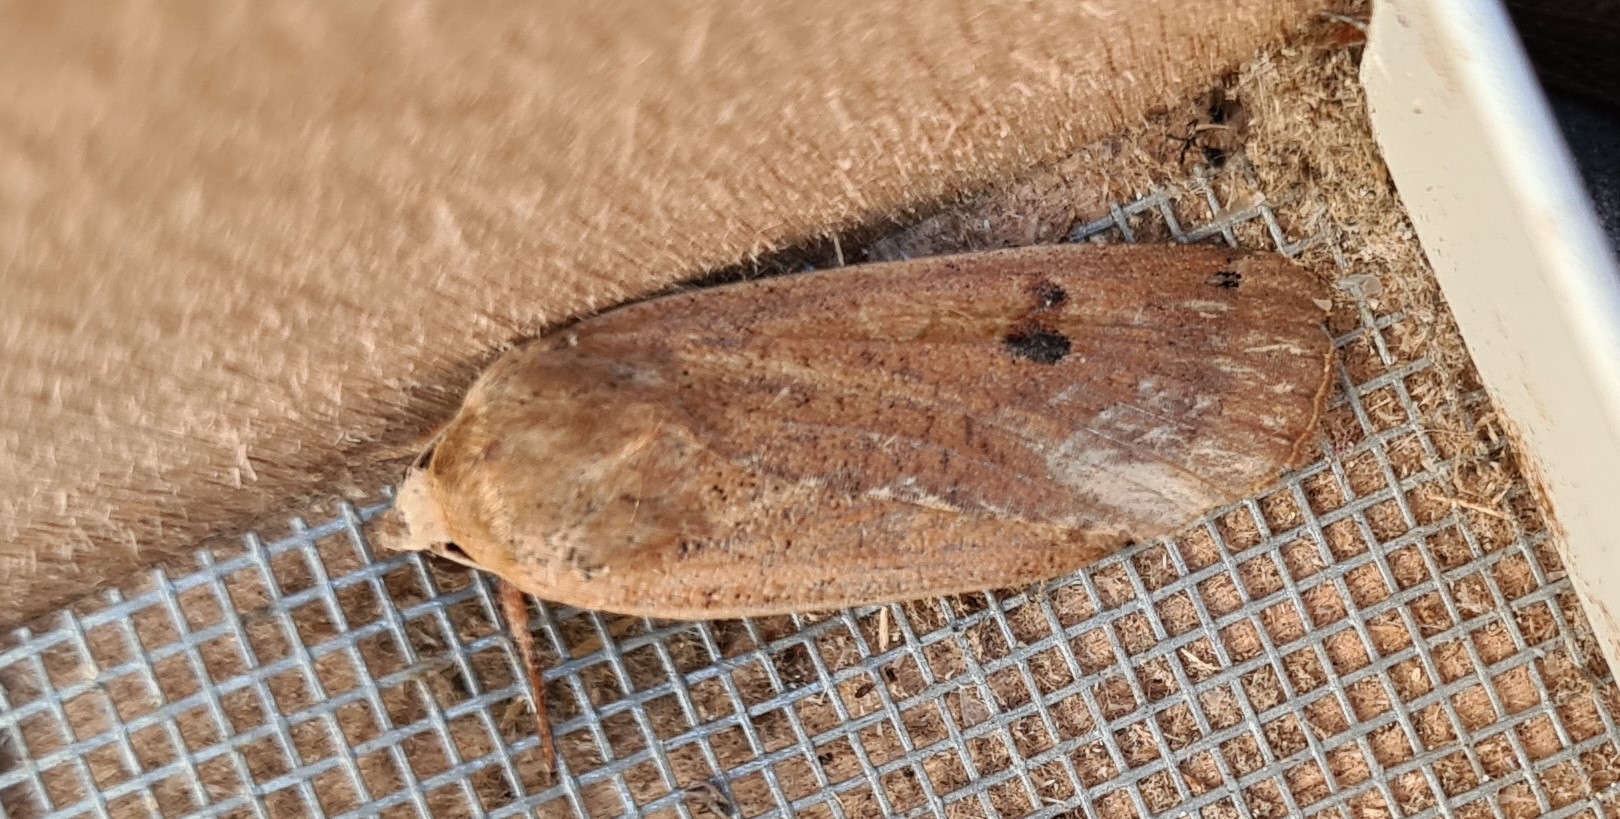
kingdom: Animalia
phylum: Arthropoda
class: Insecta
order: Lepidoptera
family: Noctuidae
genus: Noctua
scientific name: Noctua pronuba
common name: Large yellow underwing
